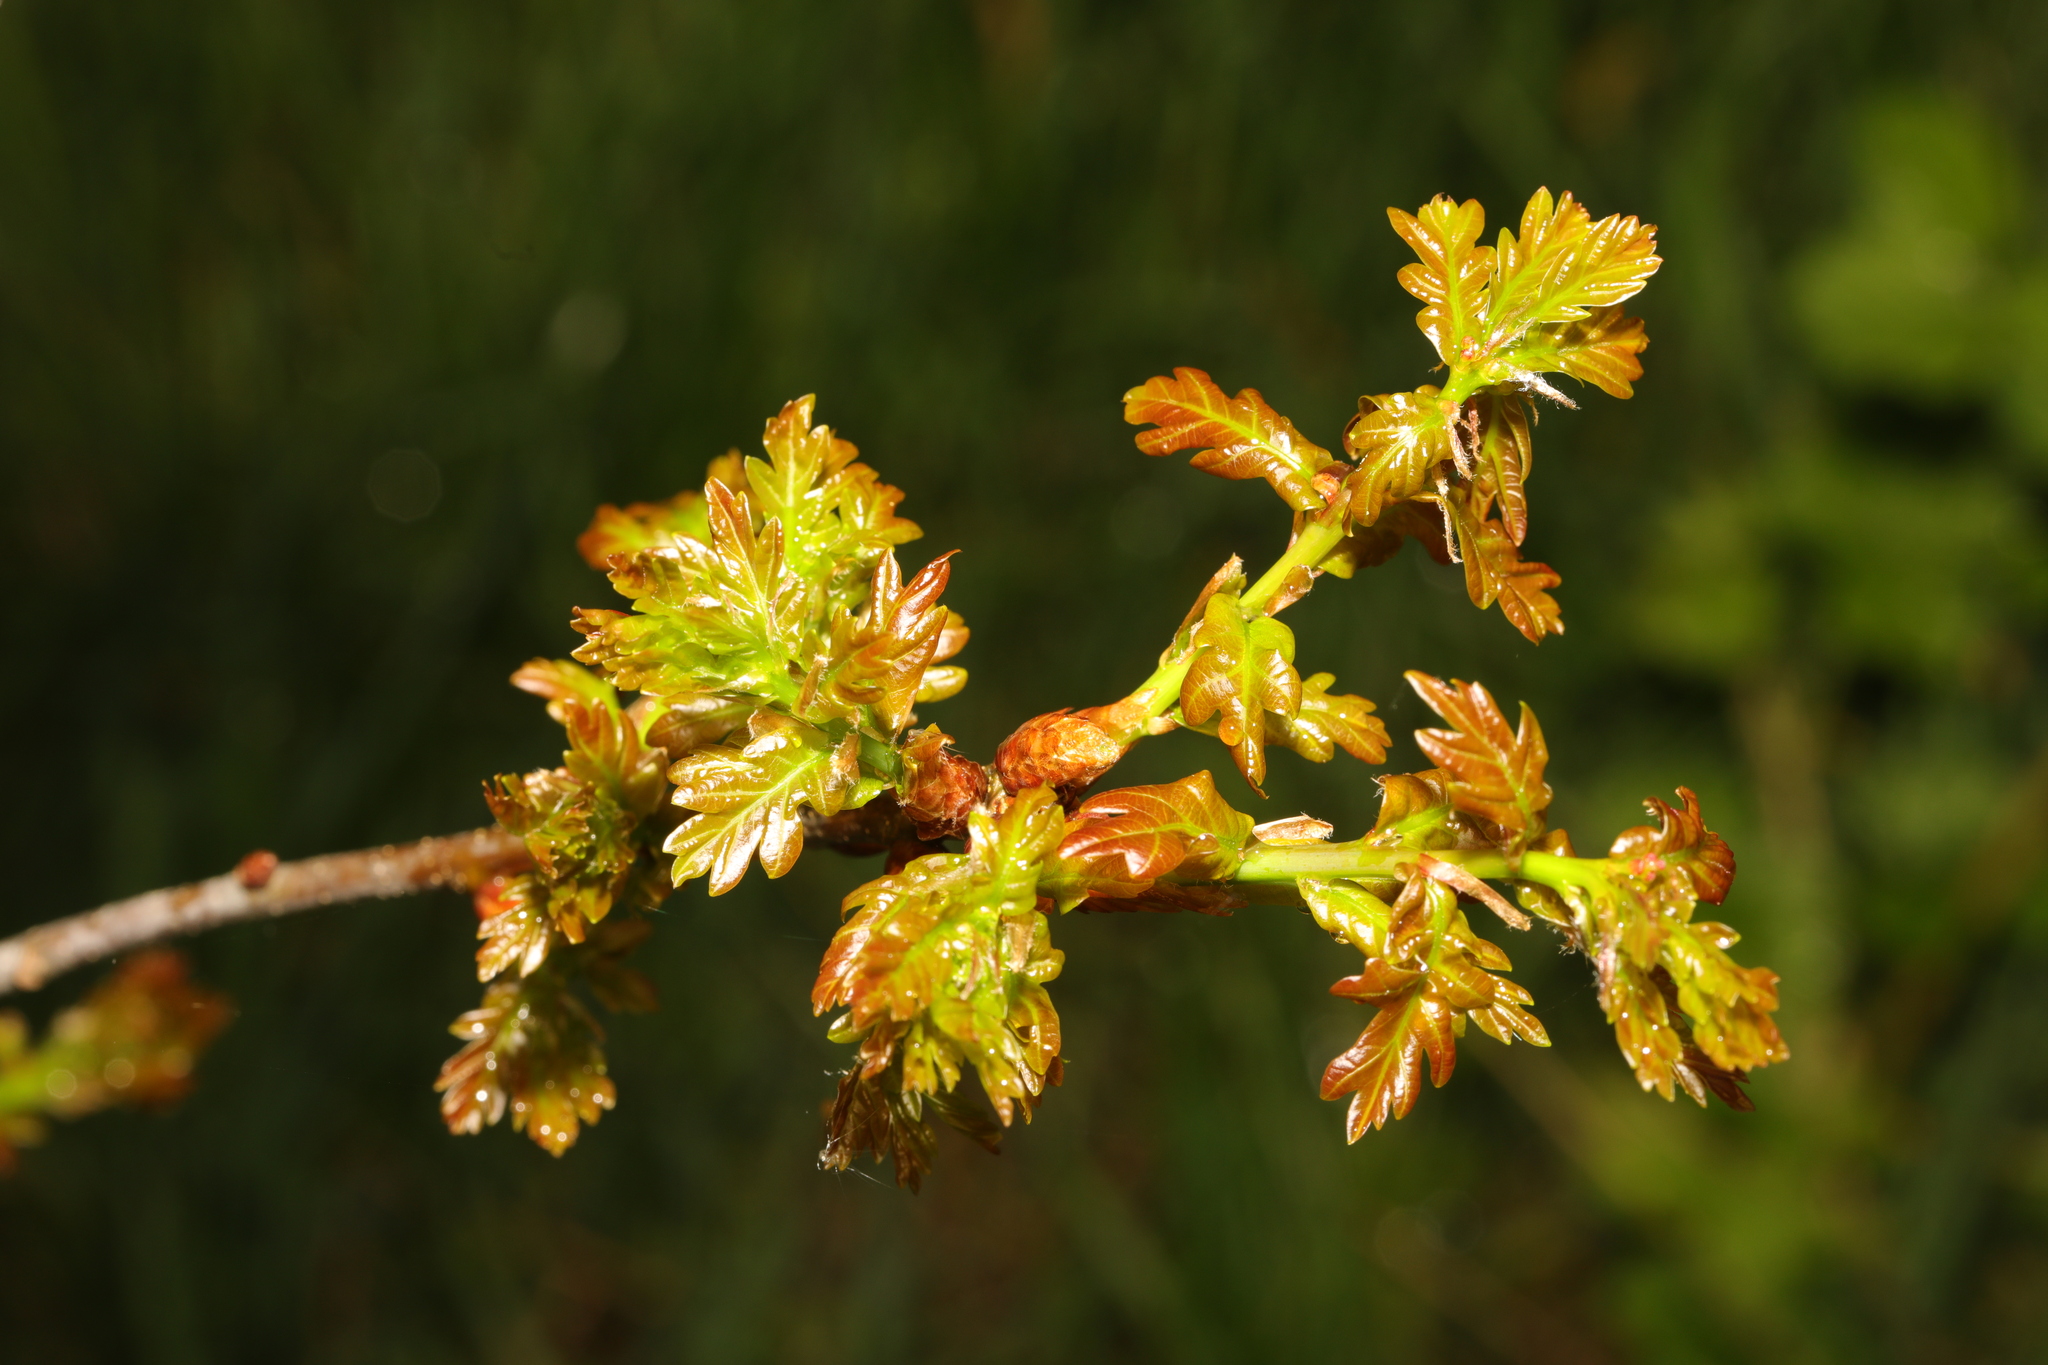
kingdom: Plantae
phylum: Tracheophyta
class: Magnoliopsida
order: Fagales
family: Fagaceae
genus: Quercus
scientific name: Quercus robur
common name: Pedunculate oak
